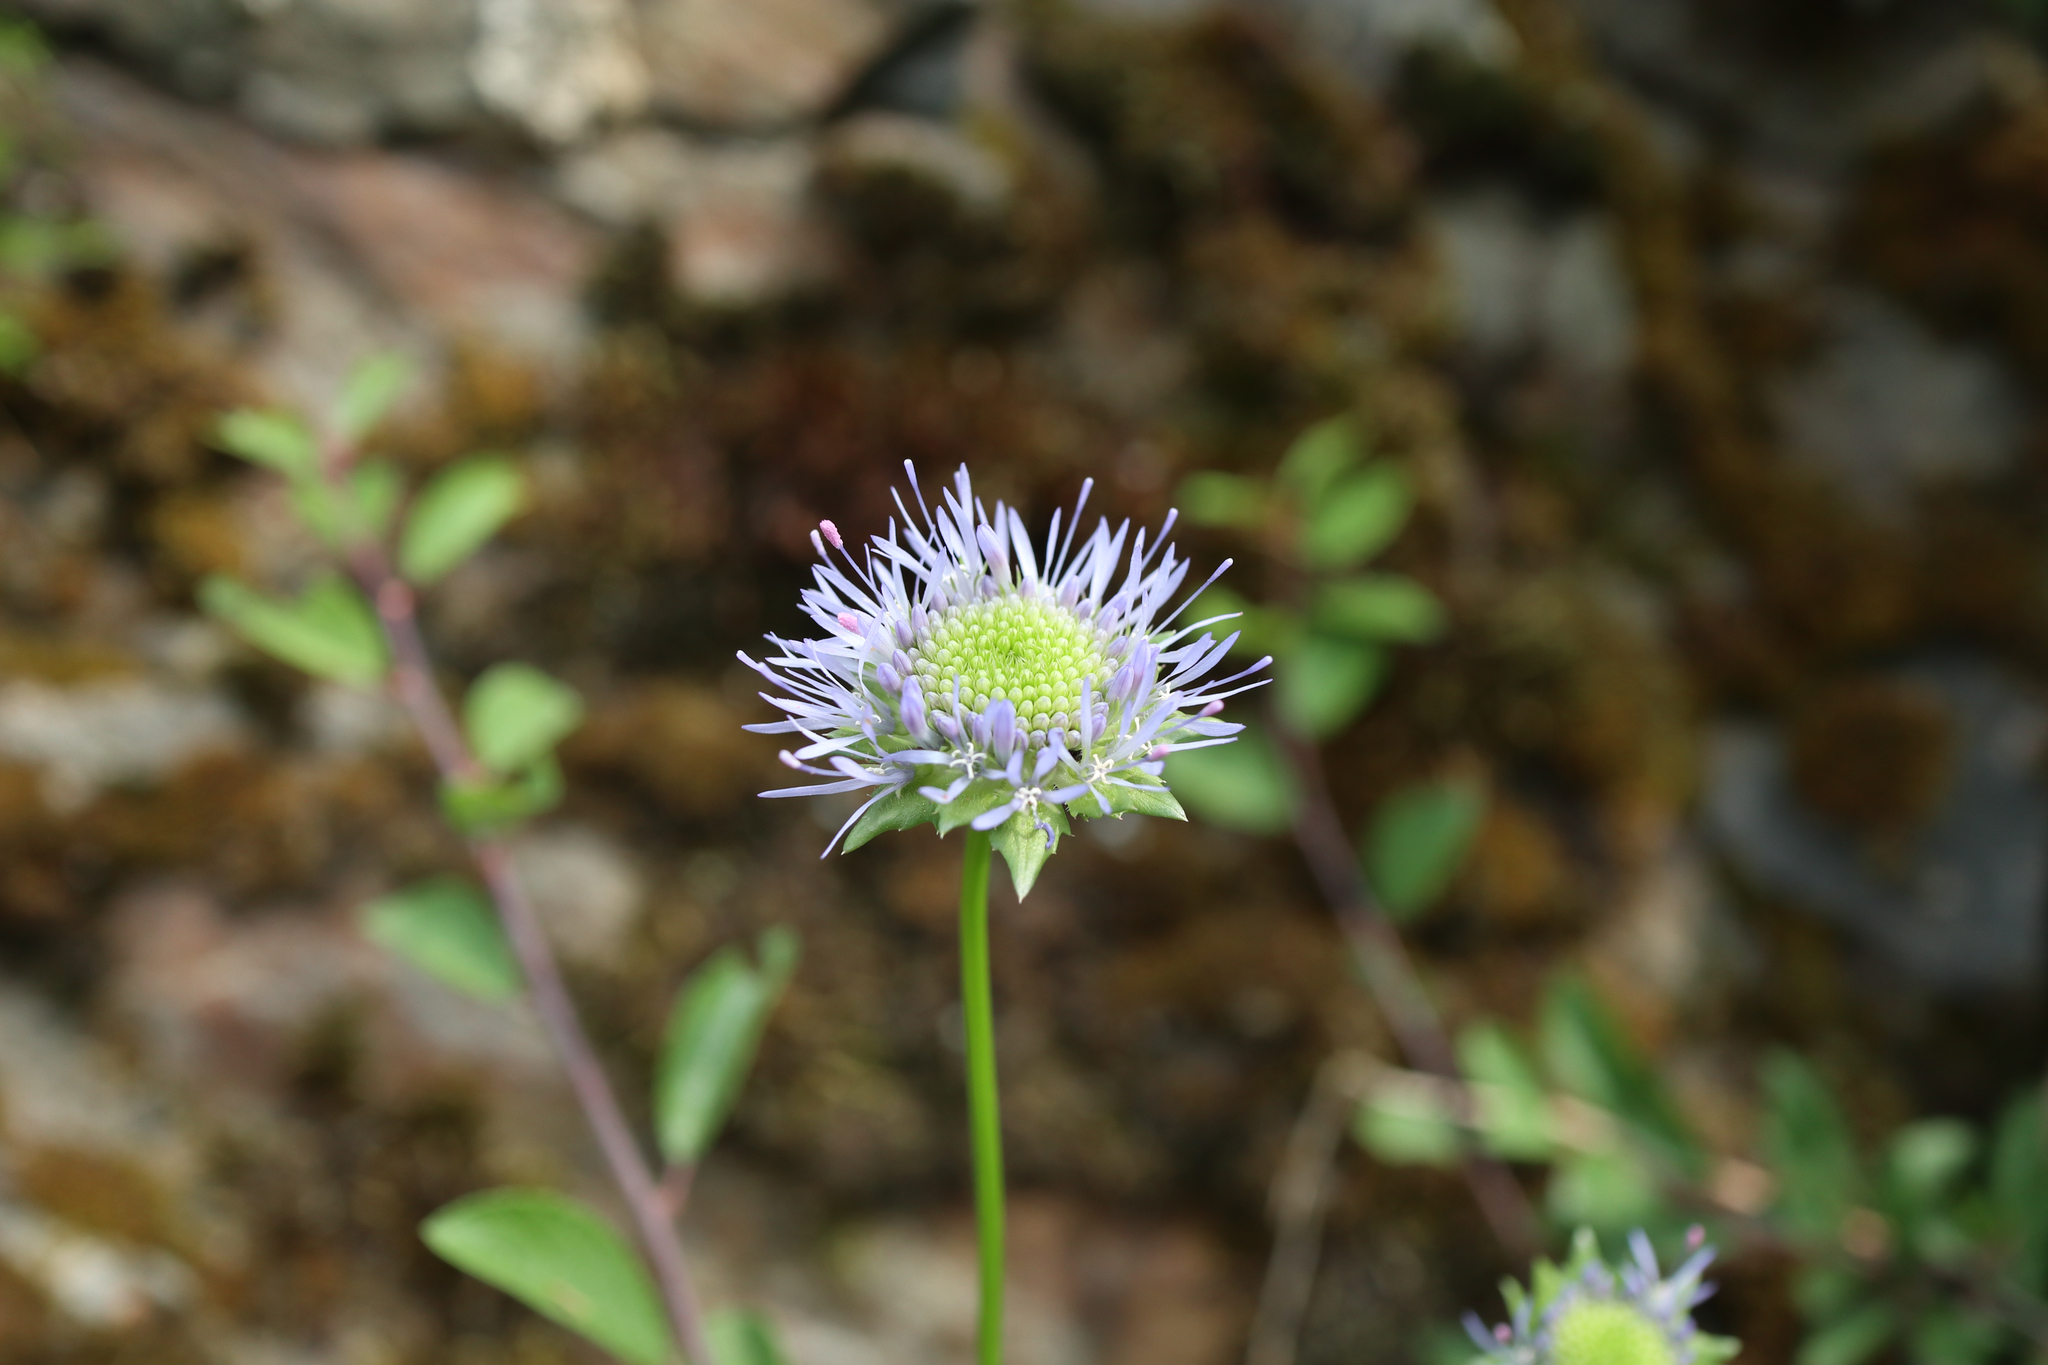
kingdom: Plantae
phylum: Tracheophyta
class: Magnoliopsida
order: Asterales
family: Campanulaceae
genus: Jasione
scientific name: Jasione montana
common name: Sheep's-bit
